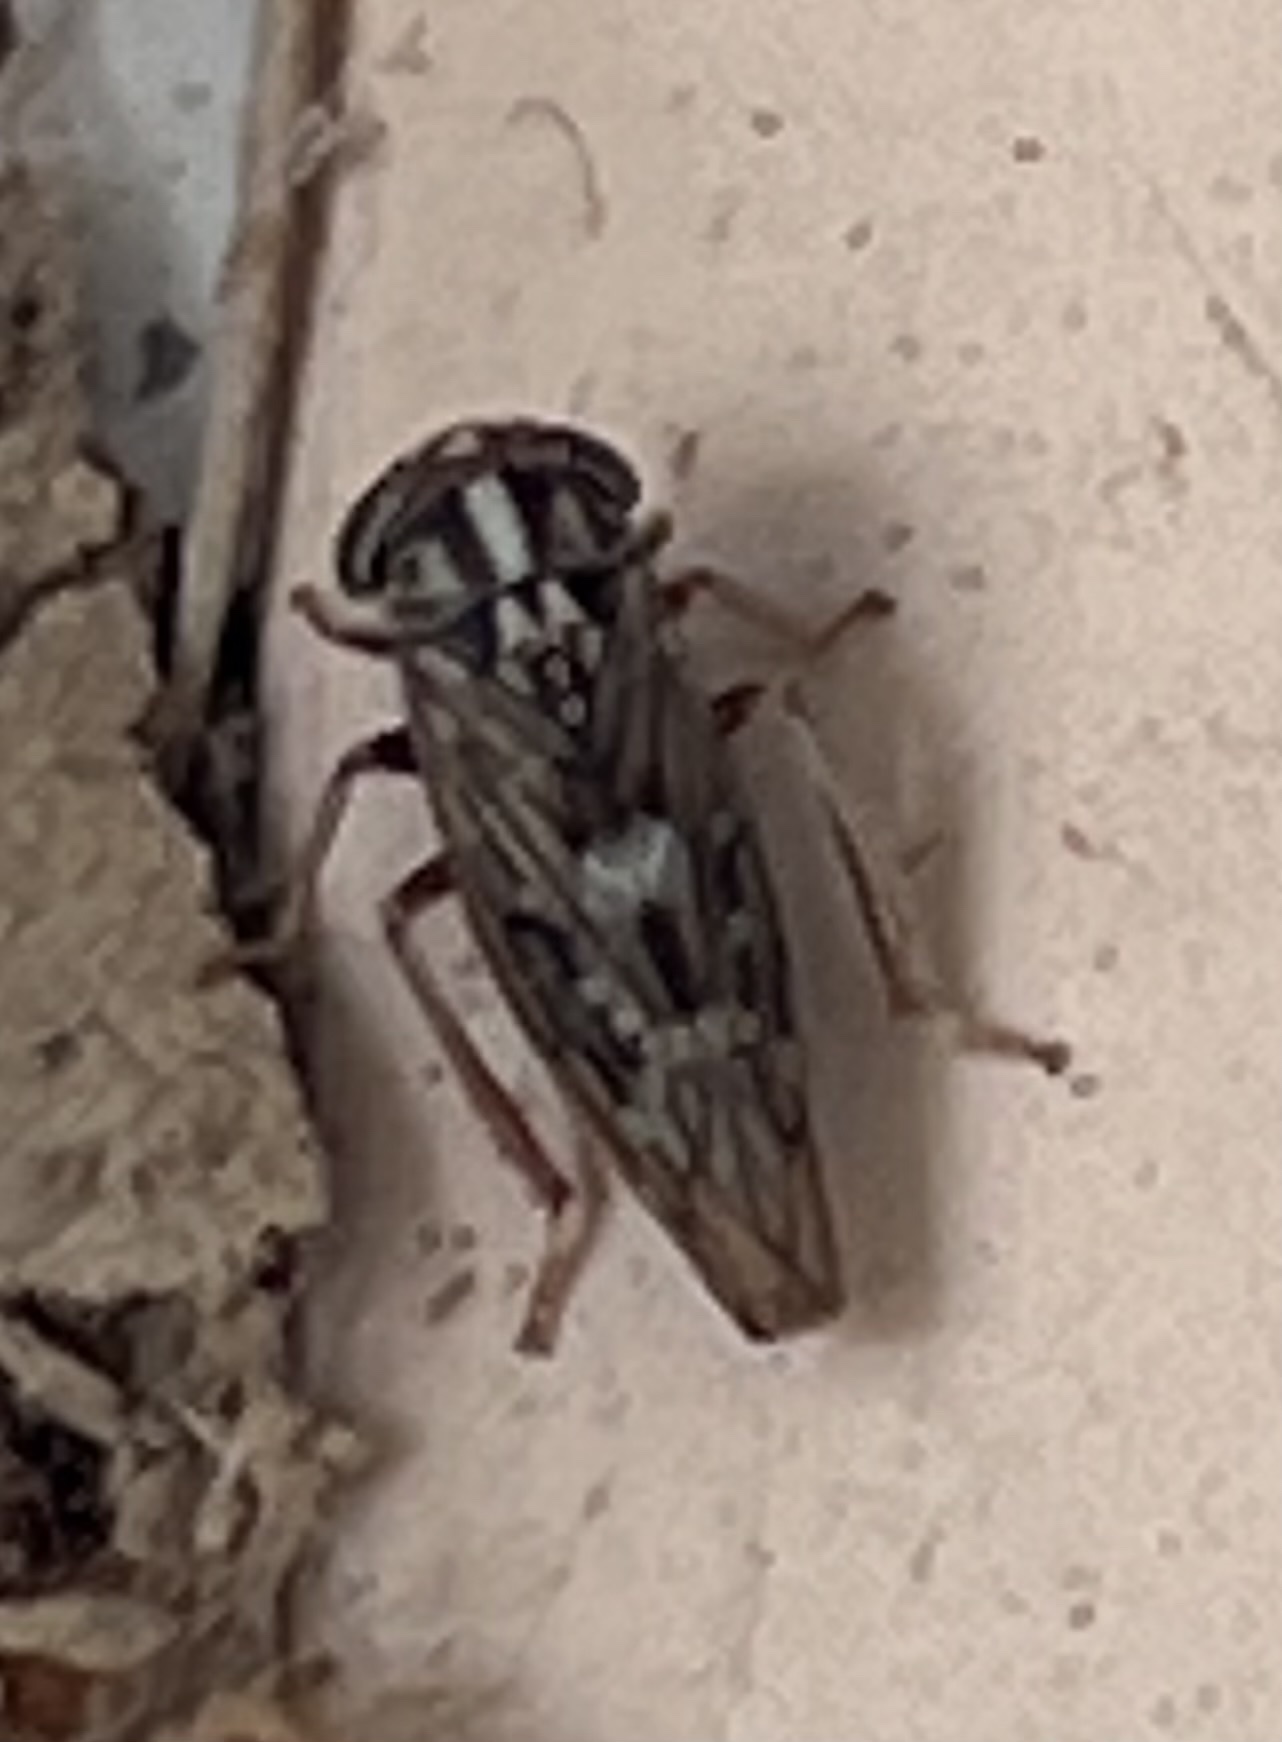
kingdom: Animalia
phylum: Arthropoda
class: Insecta
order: Hemiptera
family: Cicadellidae
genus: Idiocerus
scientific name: Idiocerus
